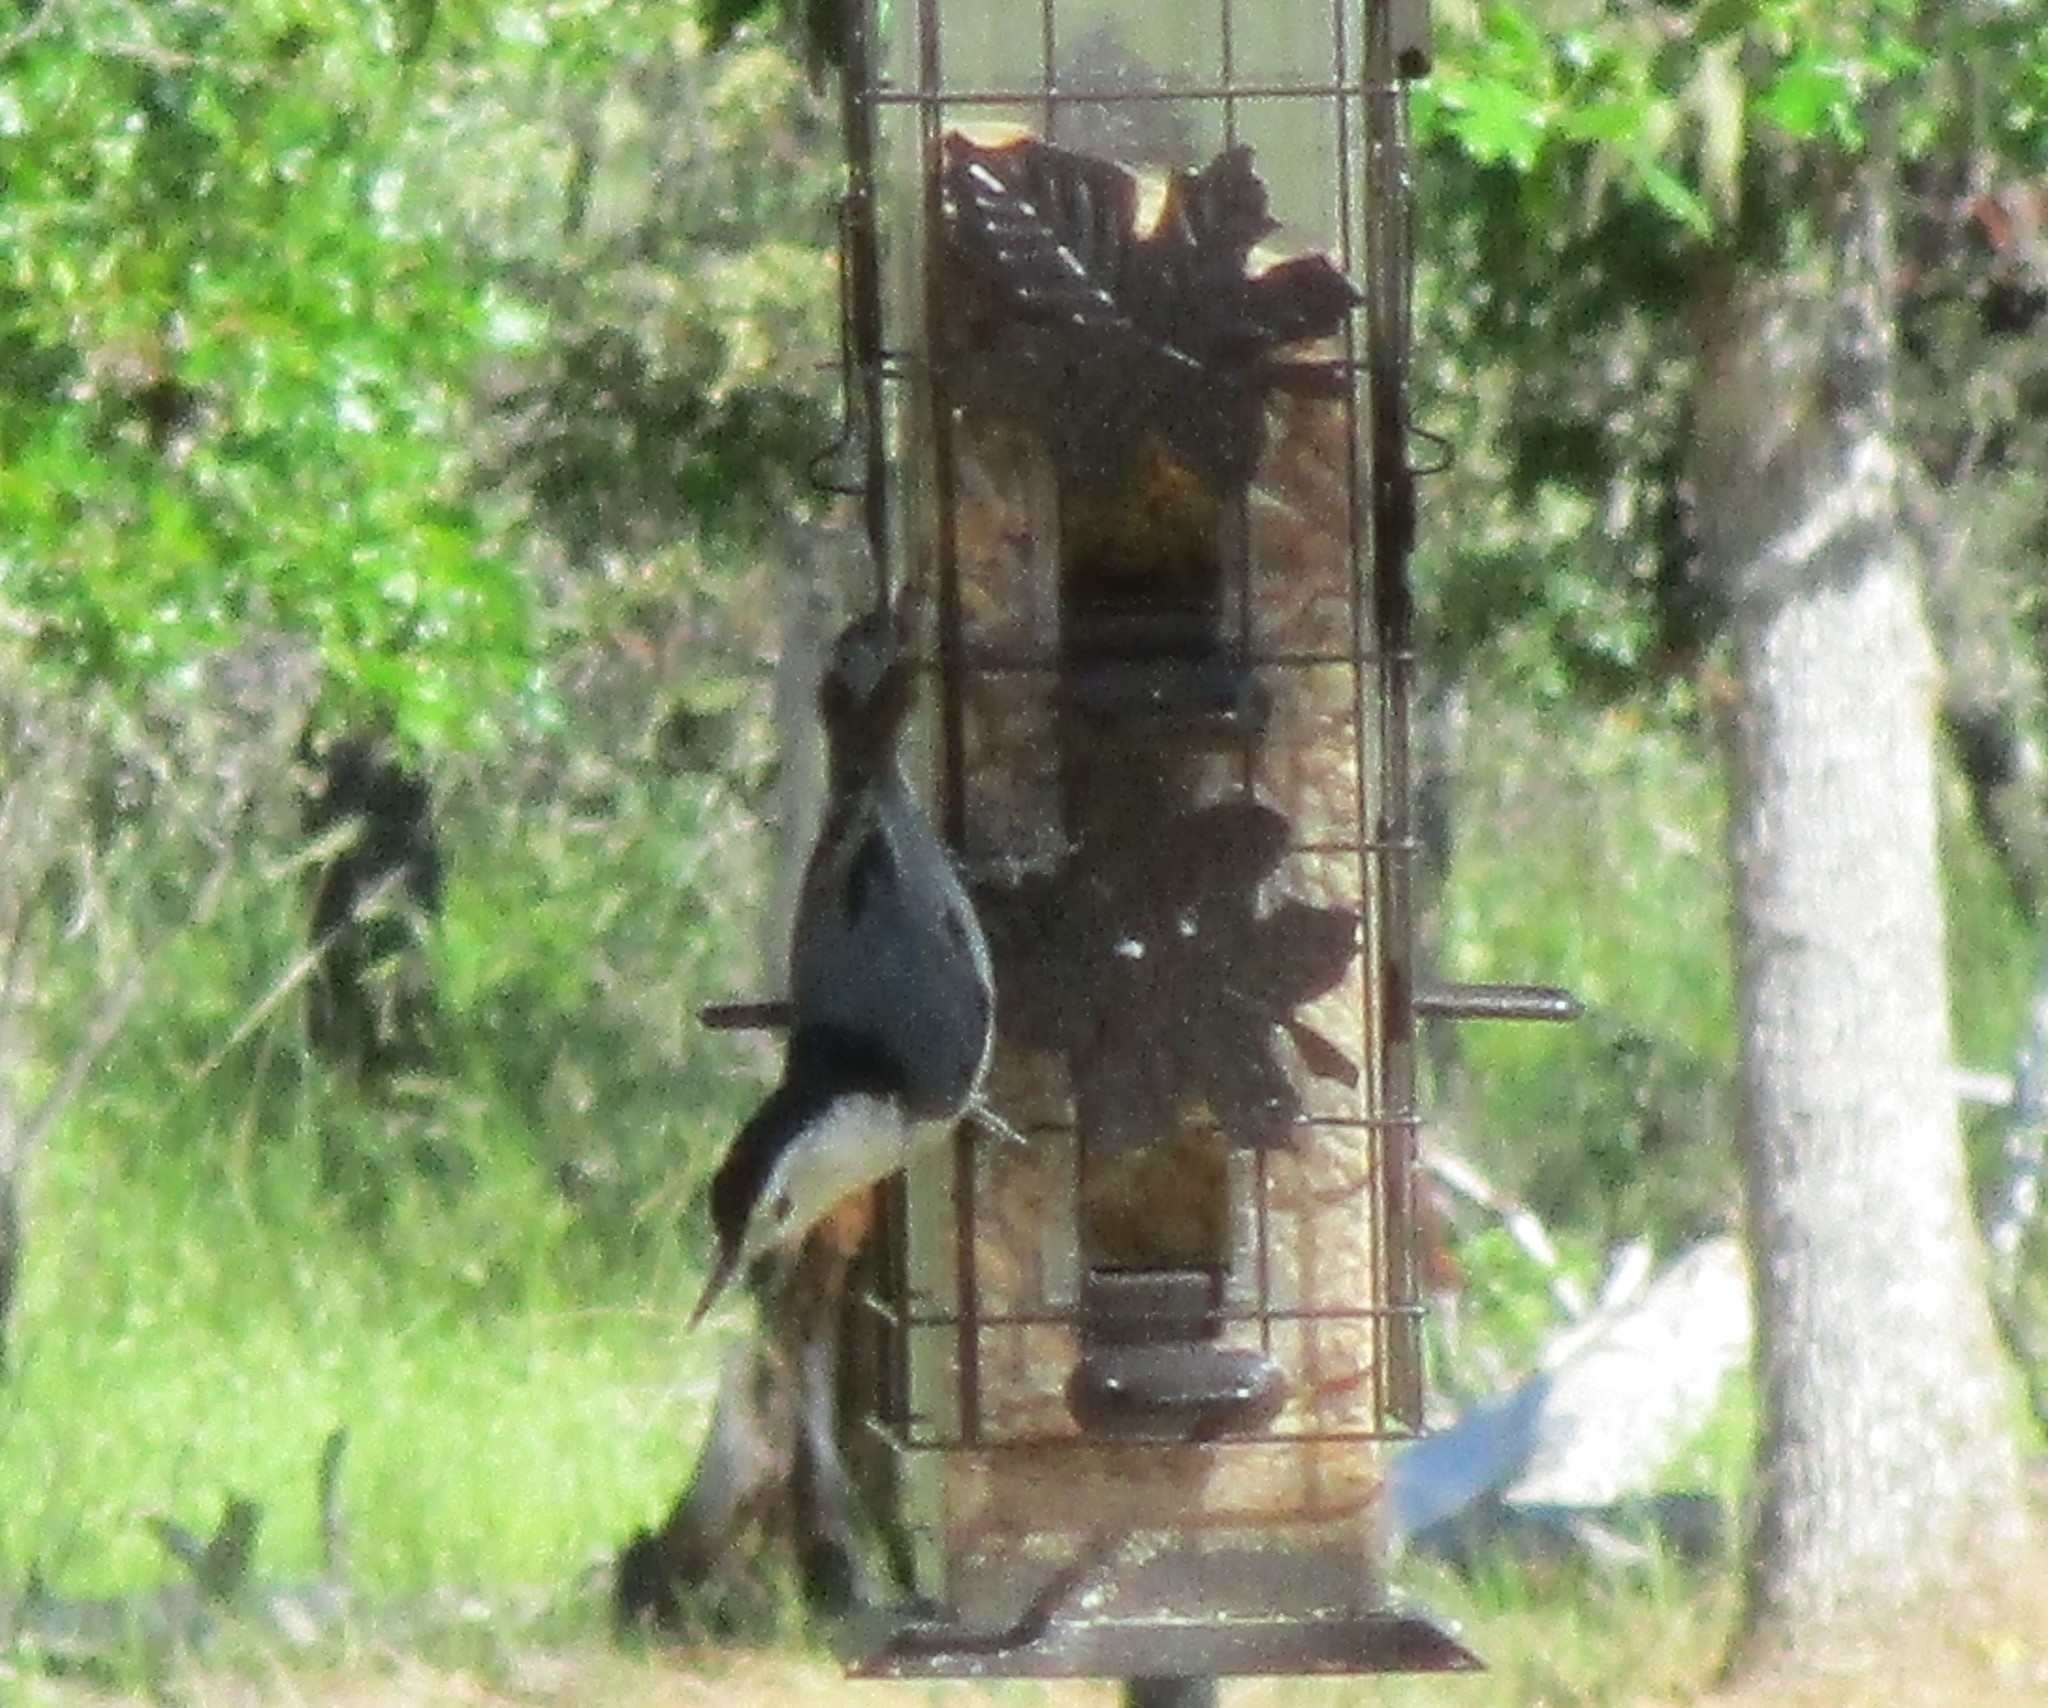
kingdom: Animalia
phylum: Chordata
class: Aves
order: Passeriformes
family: Sittidae
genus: Sitta
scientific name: Sitta carolinensis
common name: White-breasted nuthatch
